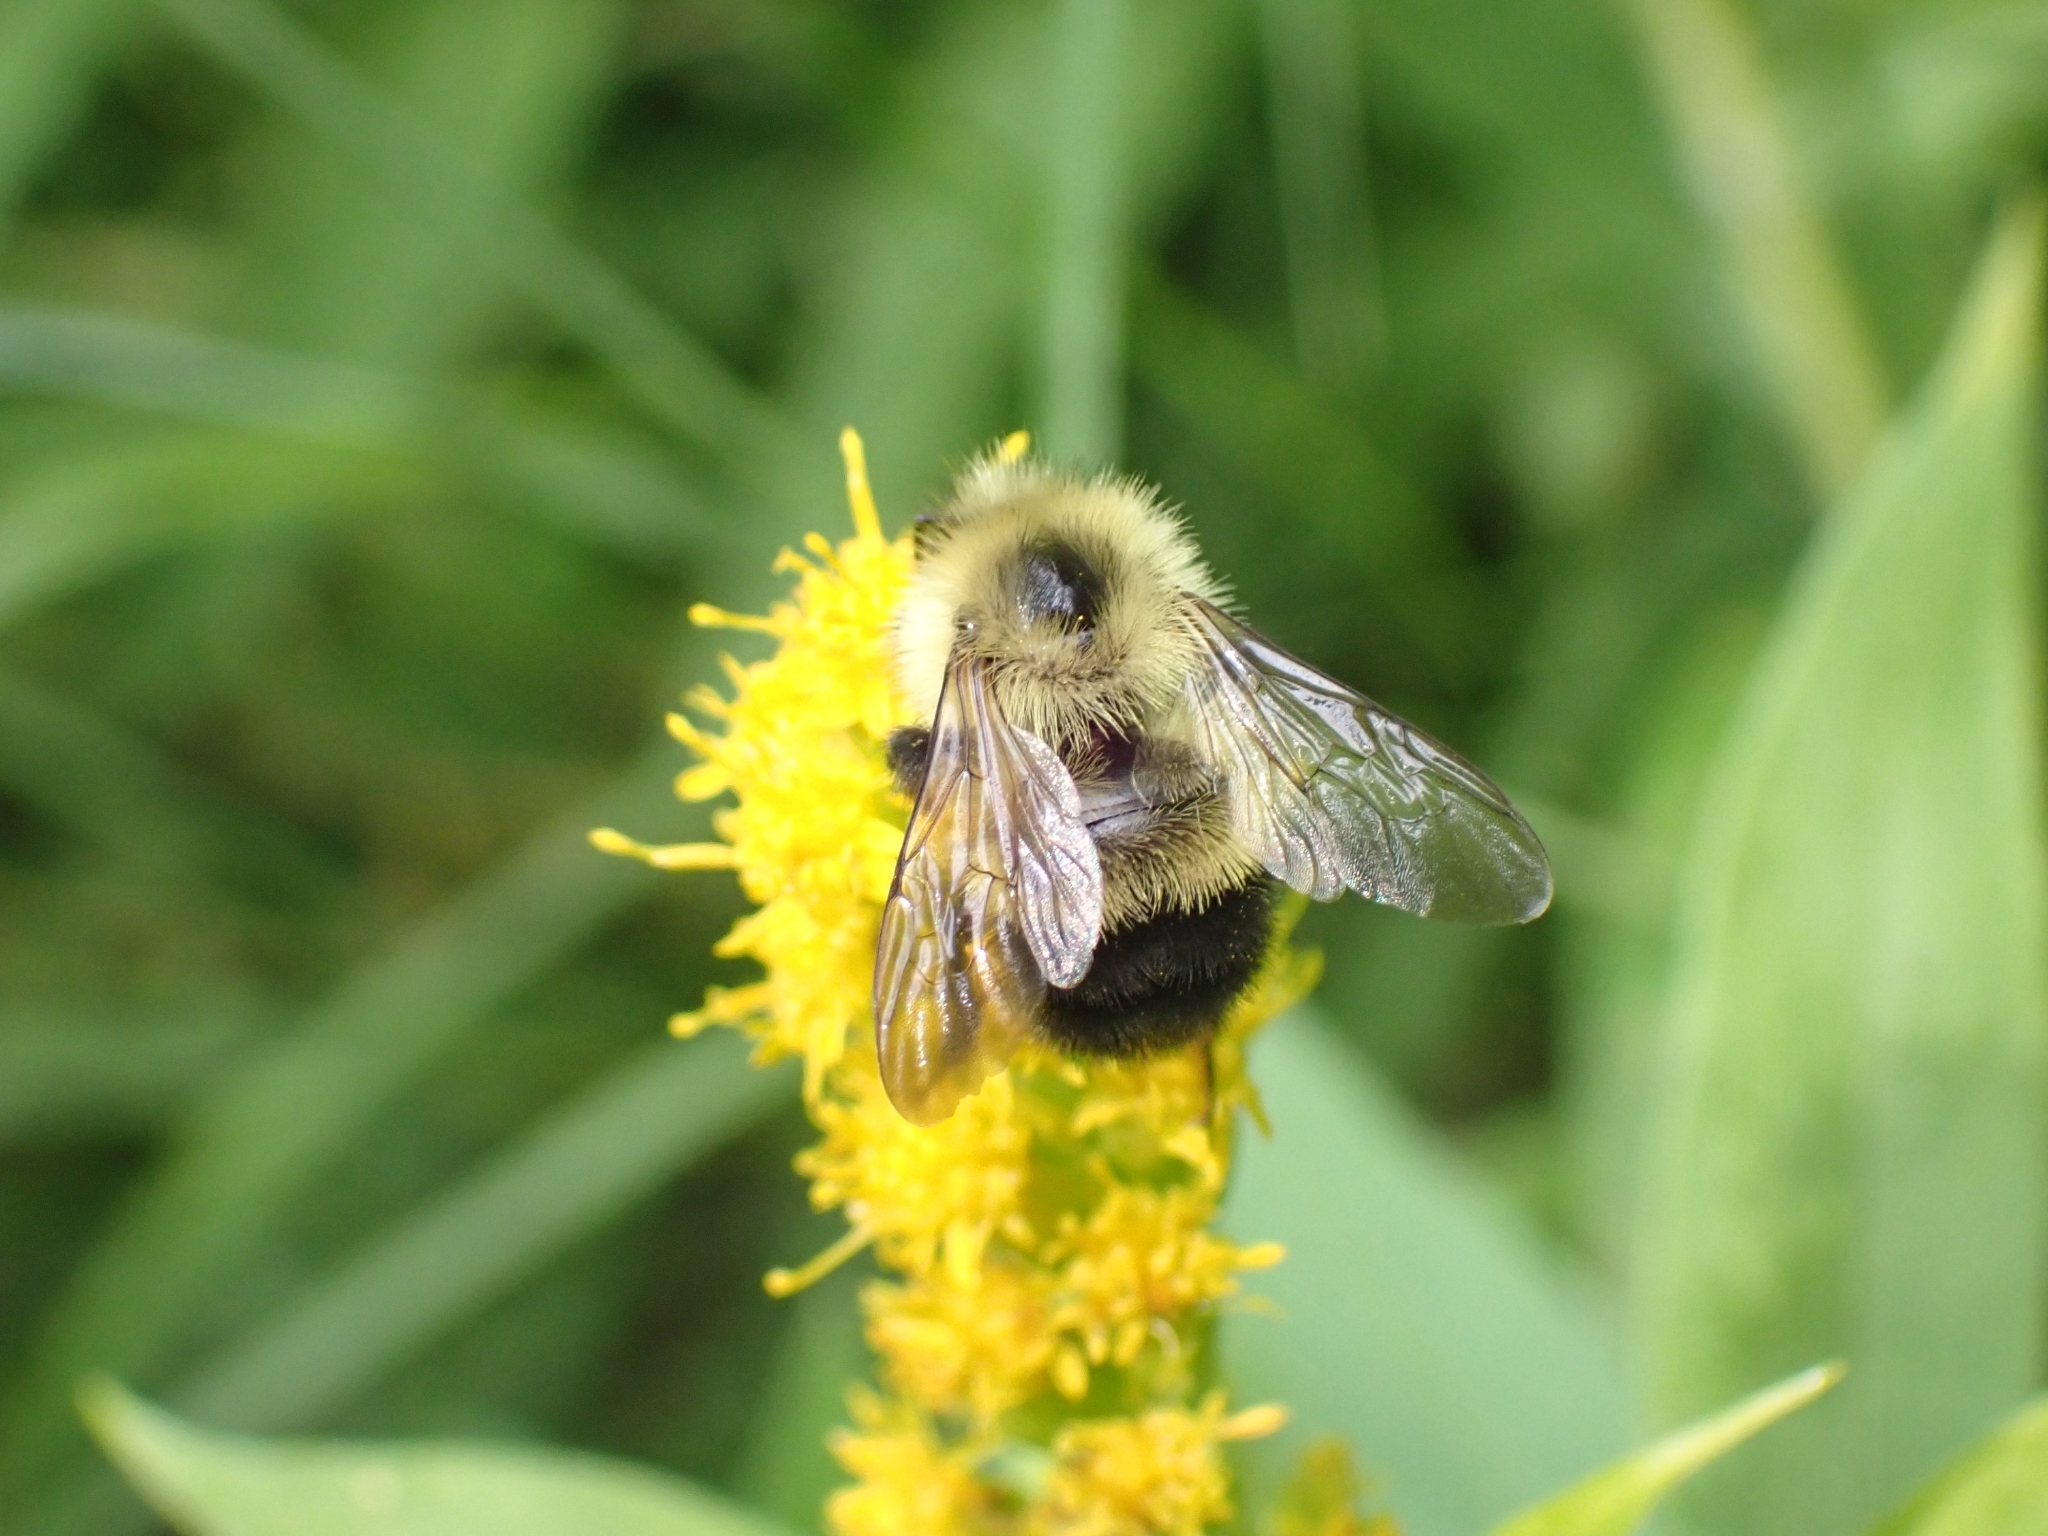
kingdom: Animalia
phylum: Arthropoda
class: Insecta
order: Hymenoptera
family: Apidae
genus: Bombus
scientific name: Bombus vagans
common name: Half-black bumble bee
